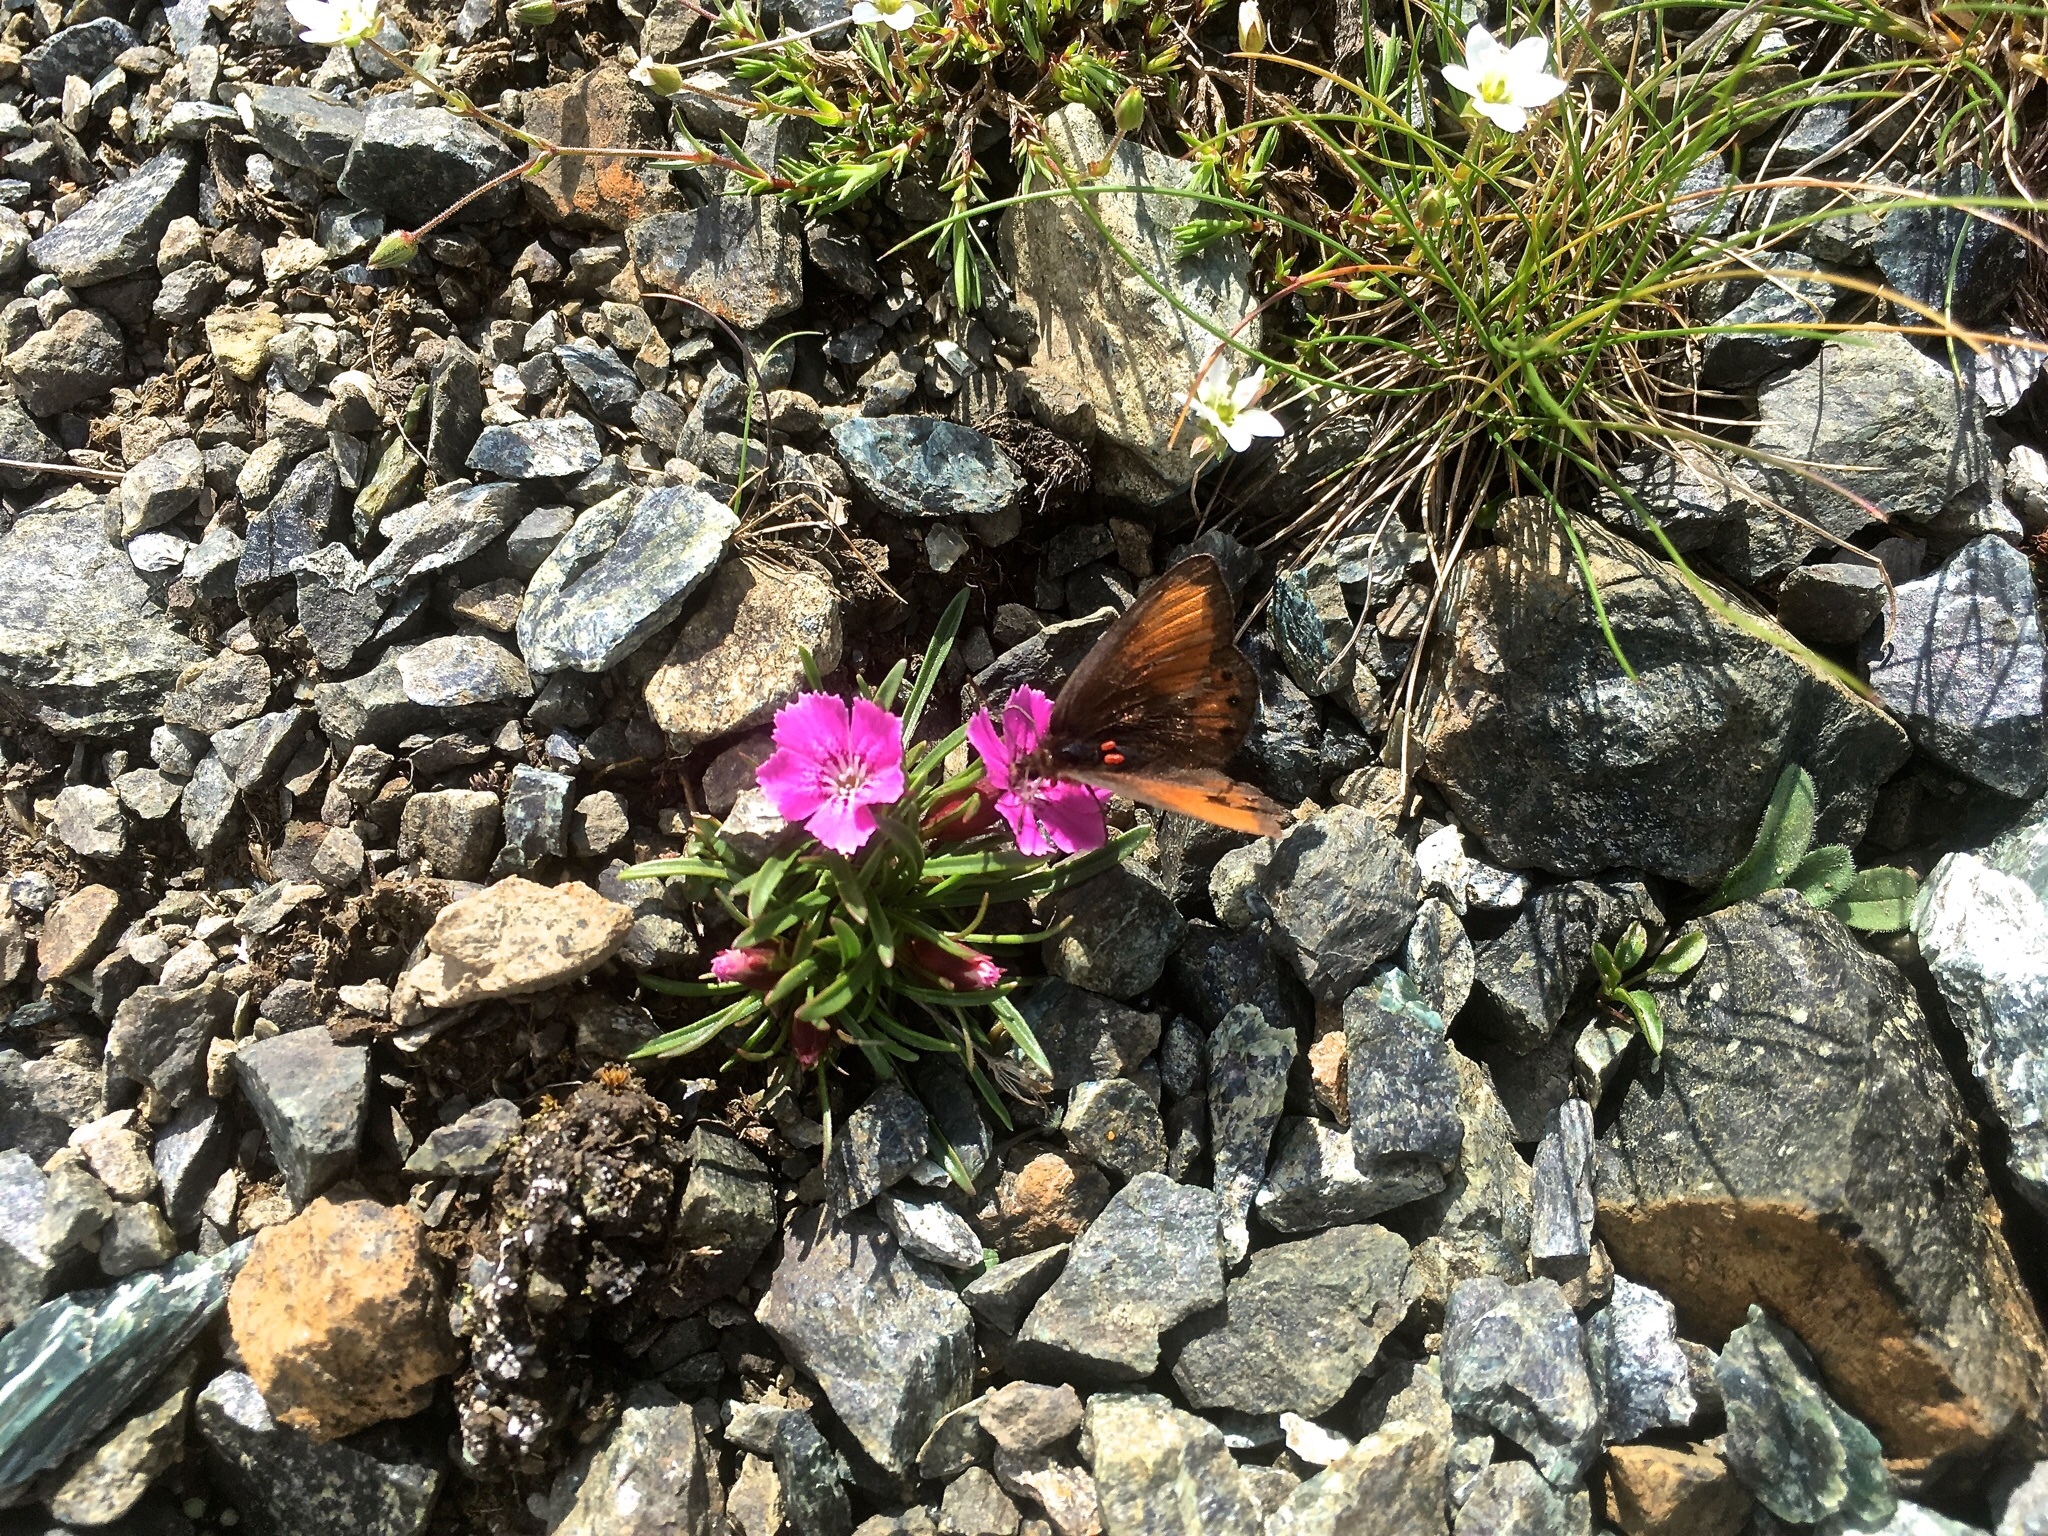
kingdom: Plantae
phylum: Tracheophyta
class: Magnoliopsida
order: Caryophyllales
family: Caryophyllaceae
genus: Dianthus
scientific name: Dianthus glacialis
